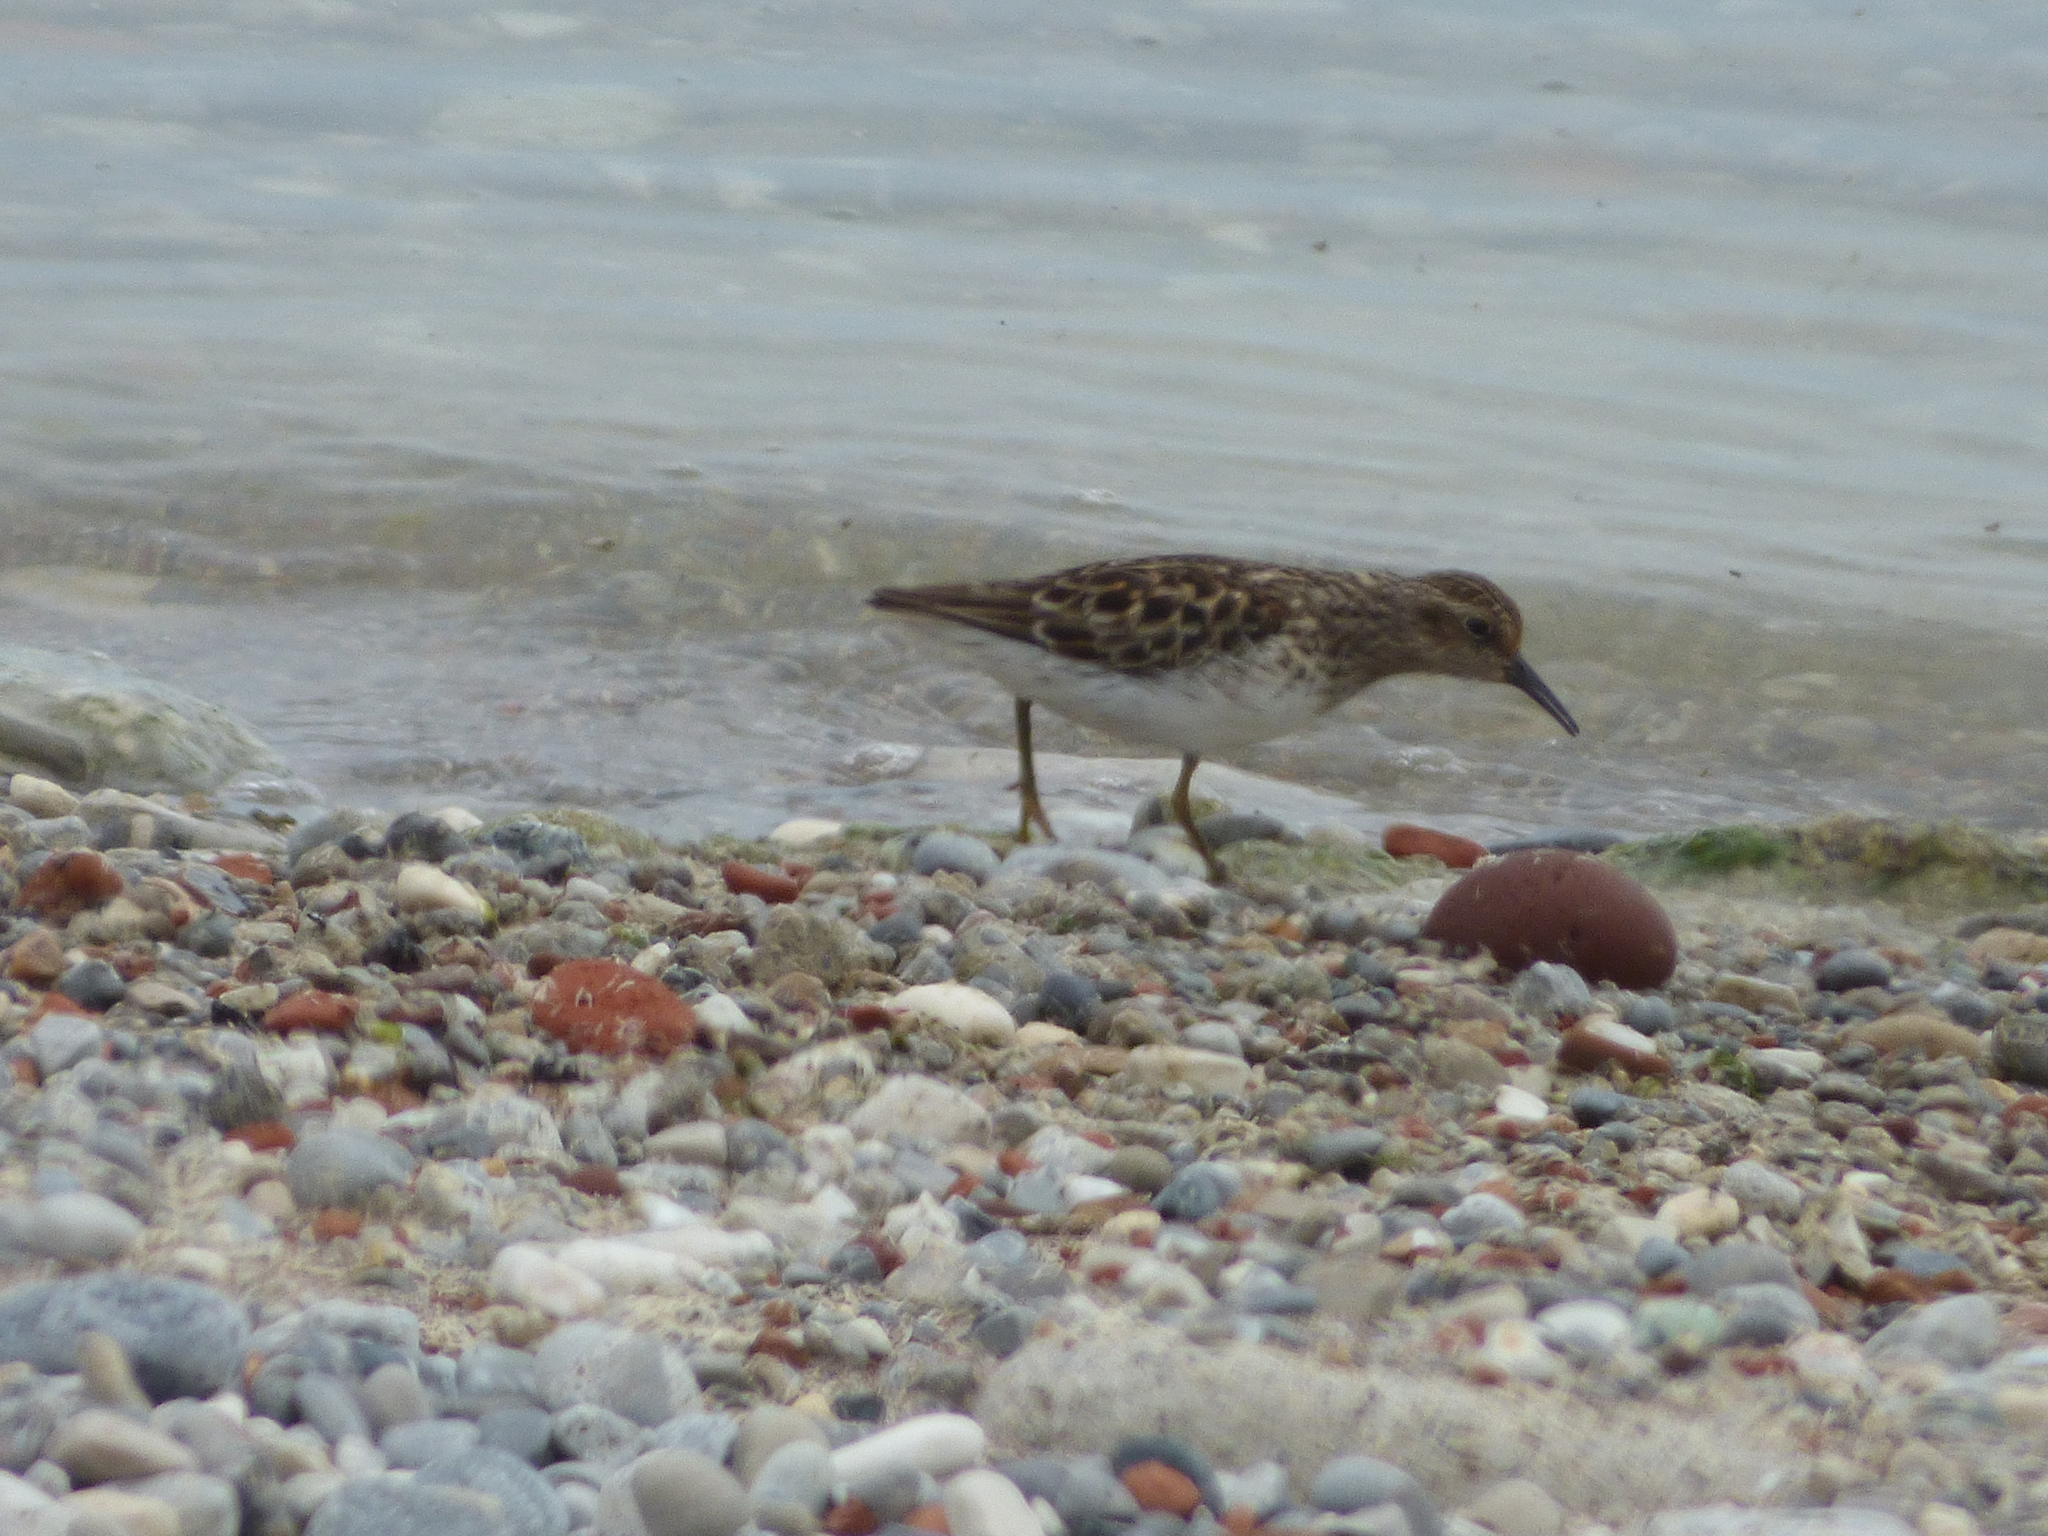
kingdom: Animalia
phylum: Chordata
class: Aves
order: Charadriiformes
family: Scolopacidae
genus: Calidris
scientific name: Calidris minutilla
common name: Least sandpiper
